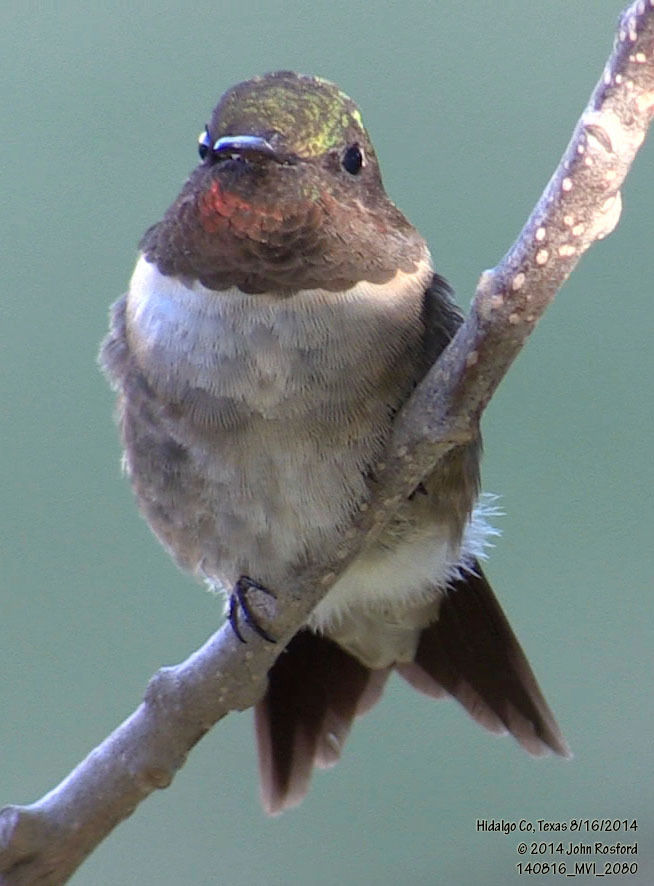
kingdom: Animalia
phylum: Chordata
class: Aves
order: Apodiformes
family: Trochilidae
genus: Archilochus
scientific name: Archilochus colubris
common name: Ruby-throated hummingbird
